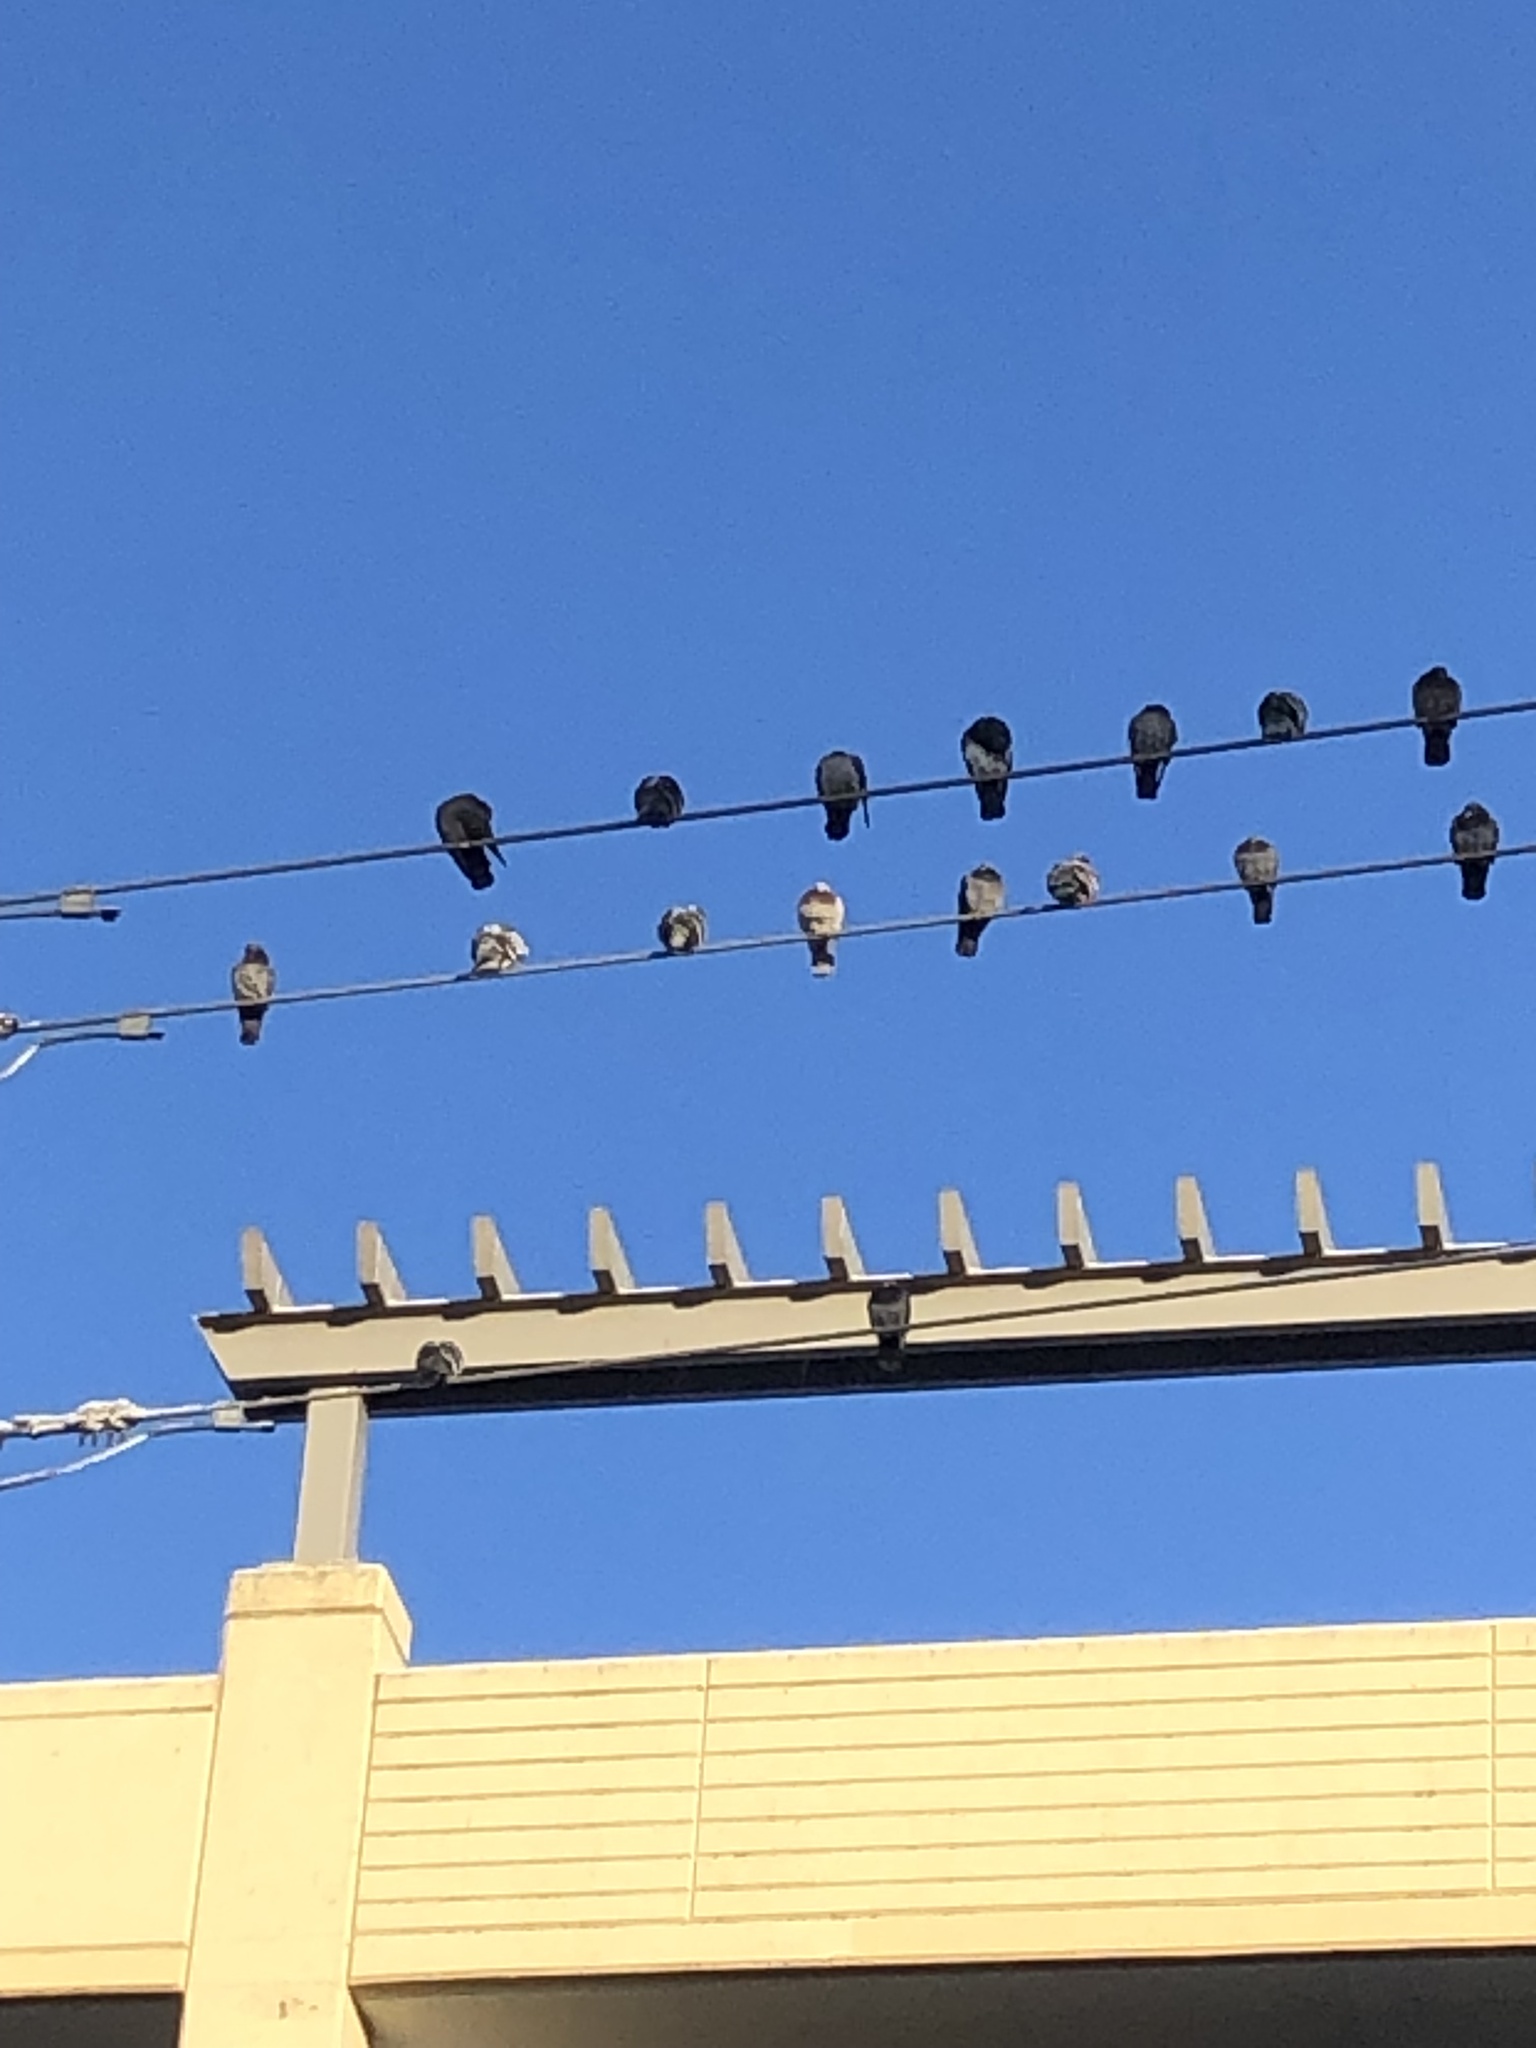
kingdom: Animalia
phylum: Chordata
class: Aves
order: Columbiformes
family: Columbidae
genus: Columba
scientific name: Columba livia
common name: Rock pigeon
